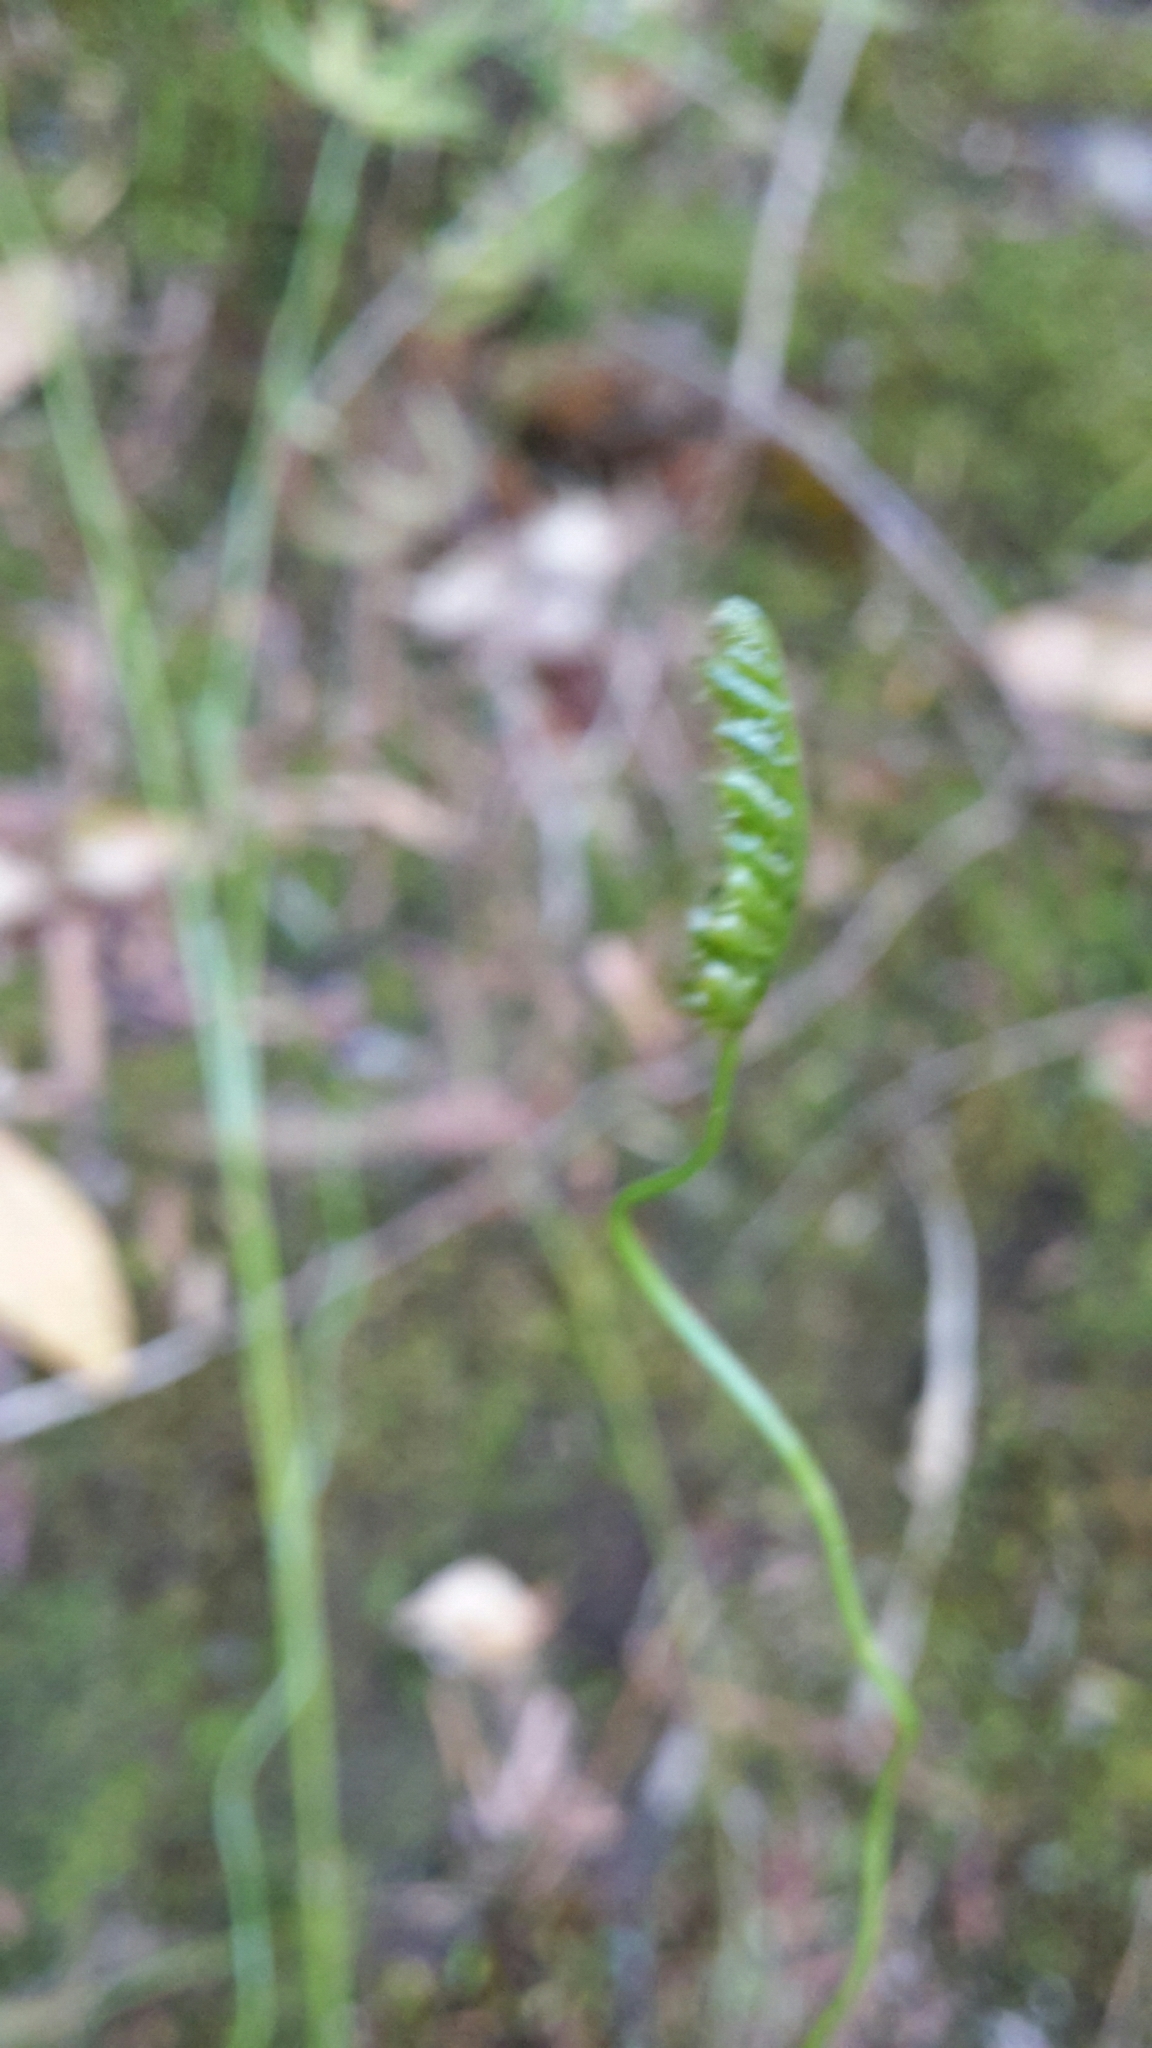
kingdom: Plantae
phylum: Tracheophyta
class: Polypodiopsida
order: Schizaeales
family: Schizaeaceae
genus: Microschizaea
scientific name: Microschizaea fistulosa
